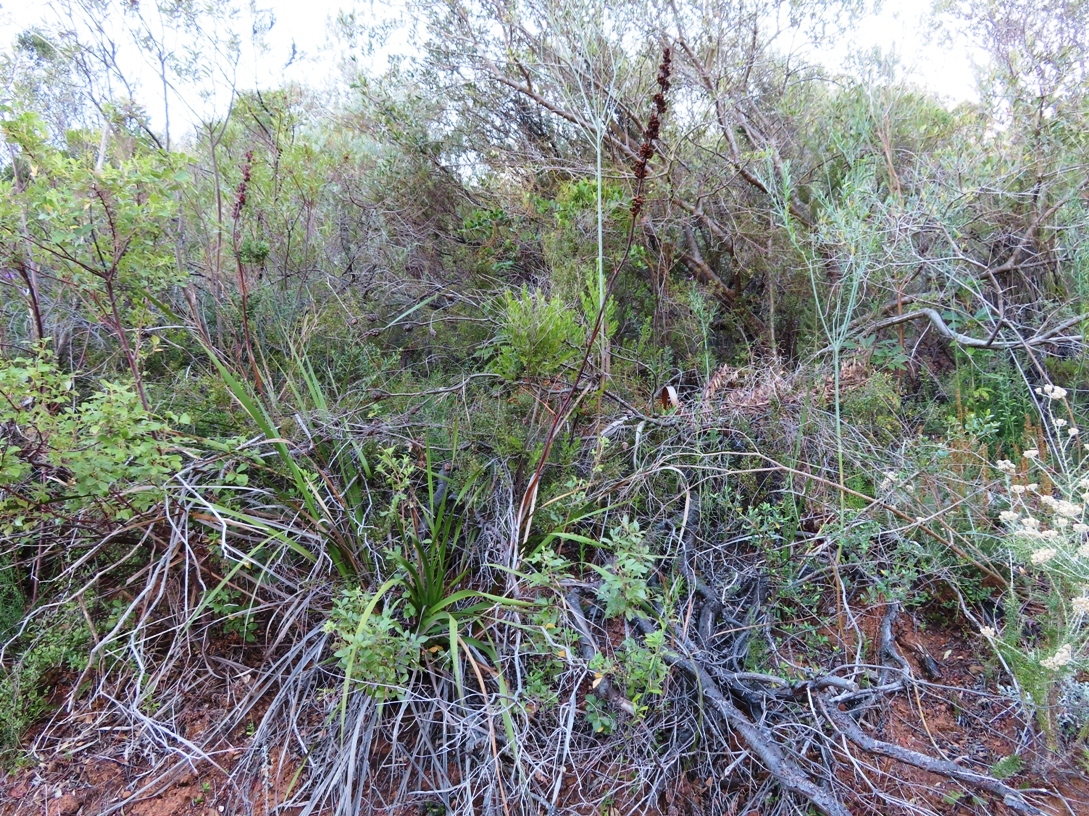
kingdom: Plantae
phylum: Tracheophyta
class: Liliopsida
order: Asparagales
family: Iridaceae
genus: Aristea
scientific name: Aristea capitata
